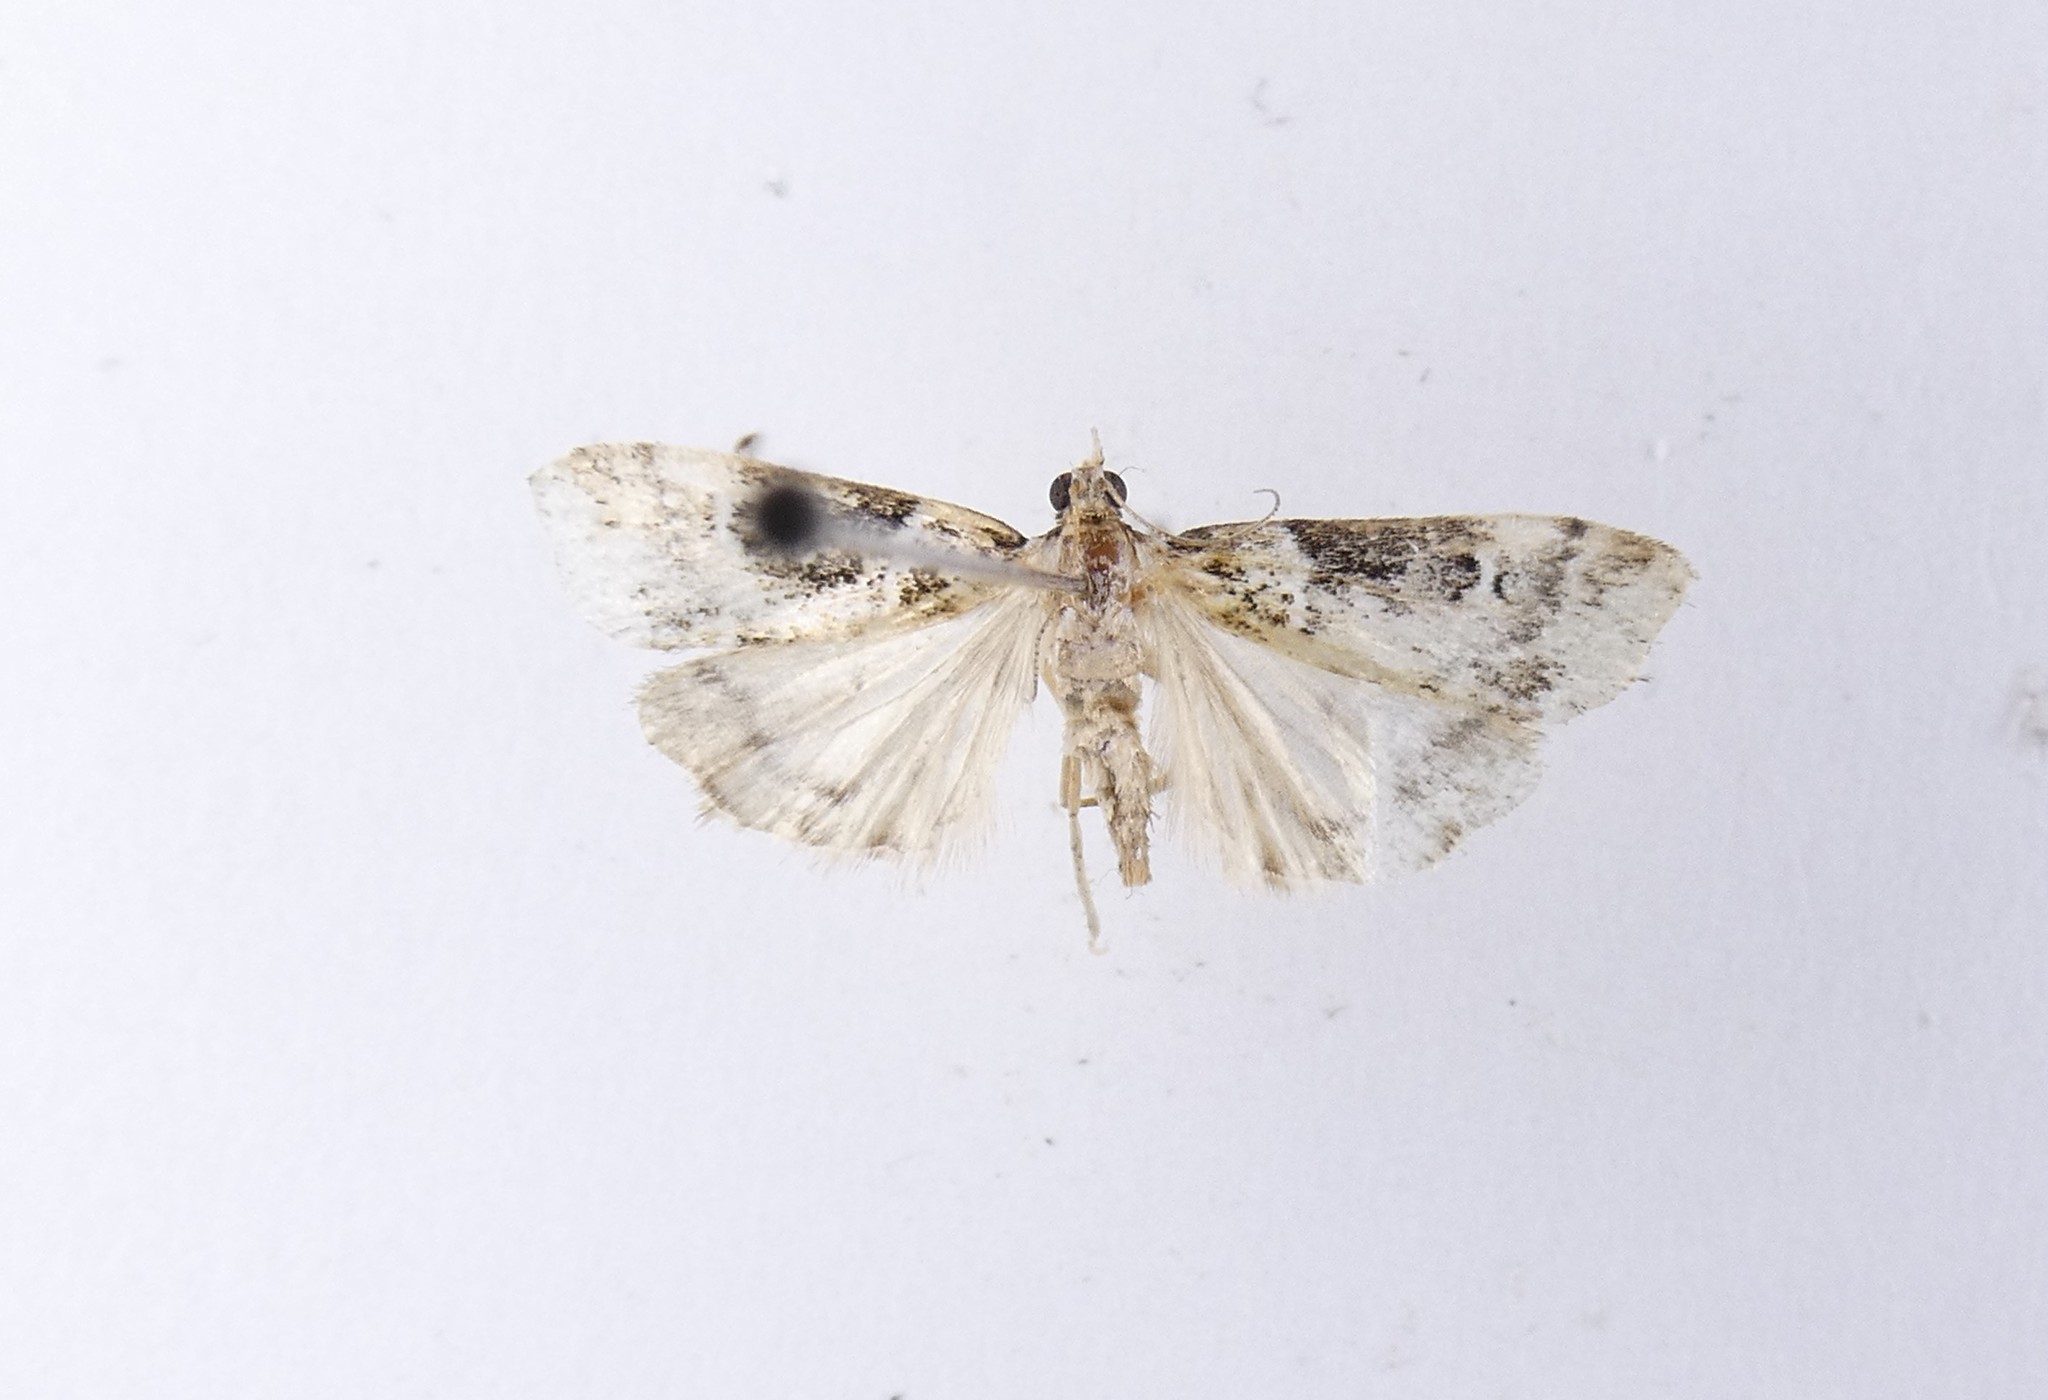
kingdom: Animalia
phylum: Arthropoda
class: Insecta
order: Lepidoptera
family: Crambidae
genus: Scoparia
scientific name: Scoparia acharis
